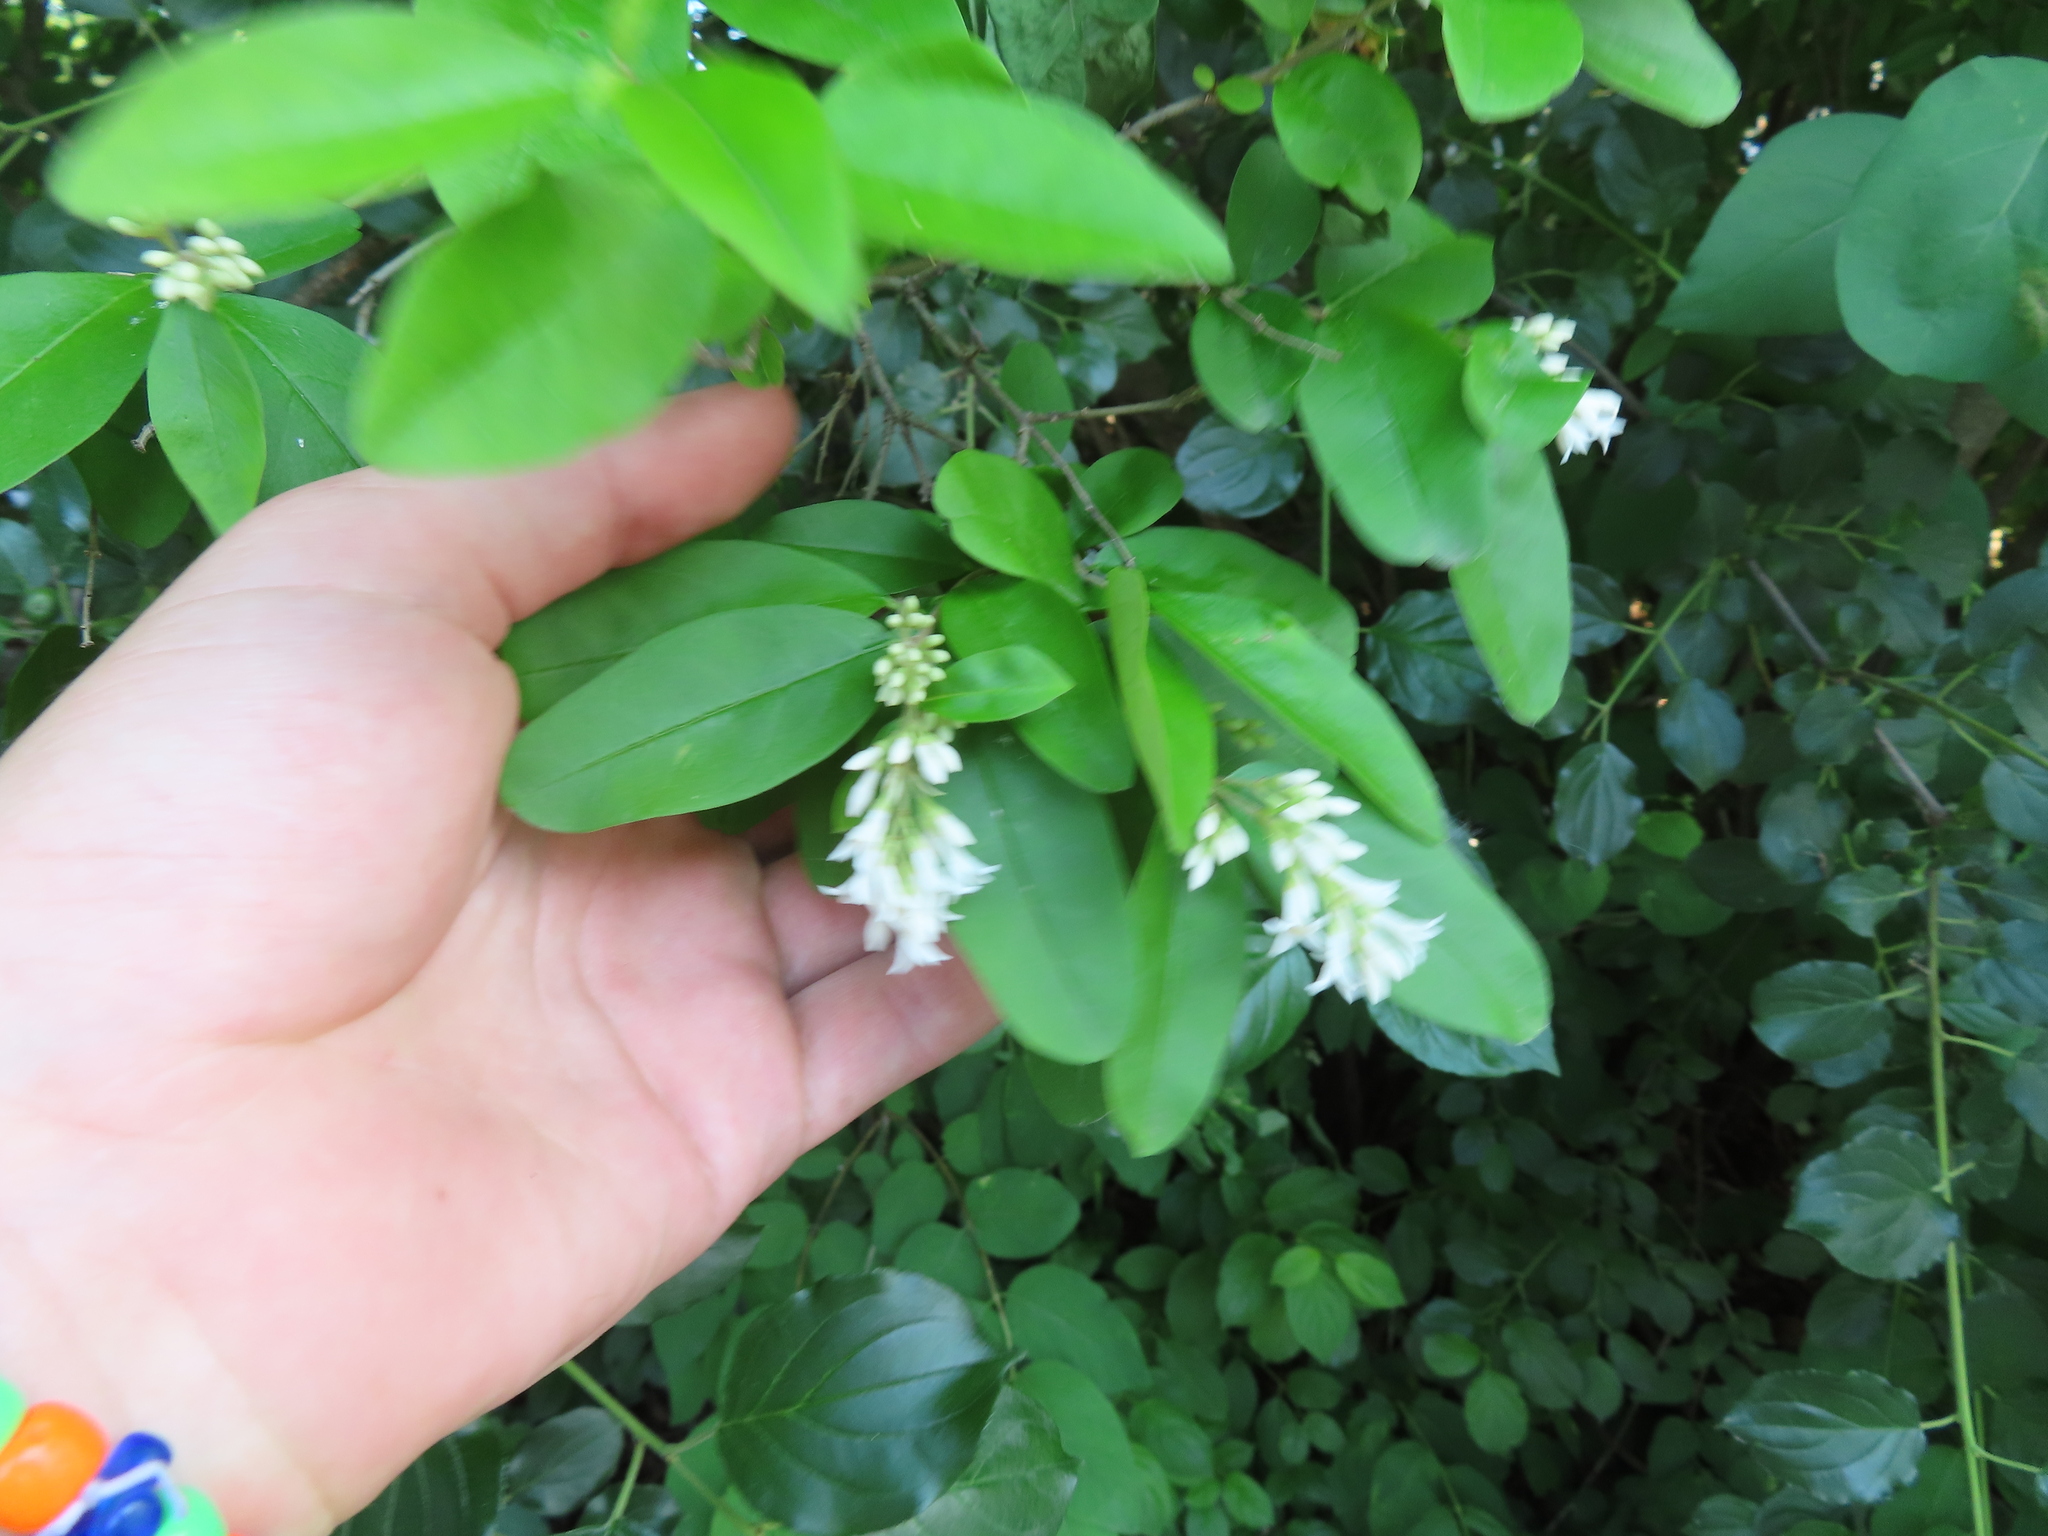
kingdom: Plantae
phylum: Tracheophyta
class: Magnoliopsida
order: Lamiales
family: Oleaceae
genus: Ligustrum
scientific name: Ligustrum obtusifolium
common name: Border privet
